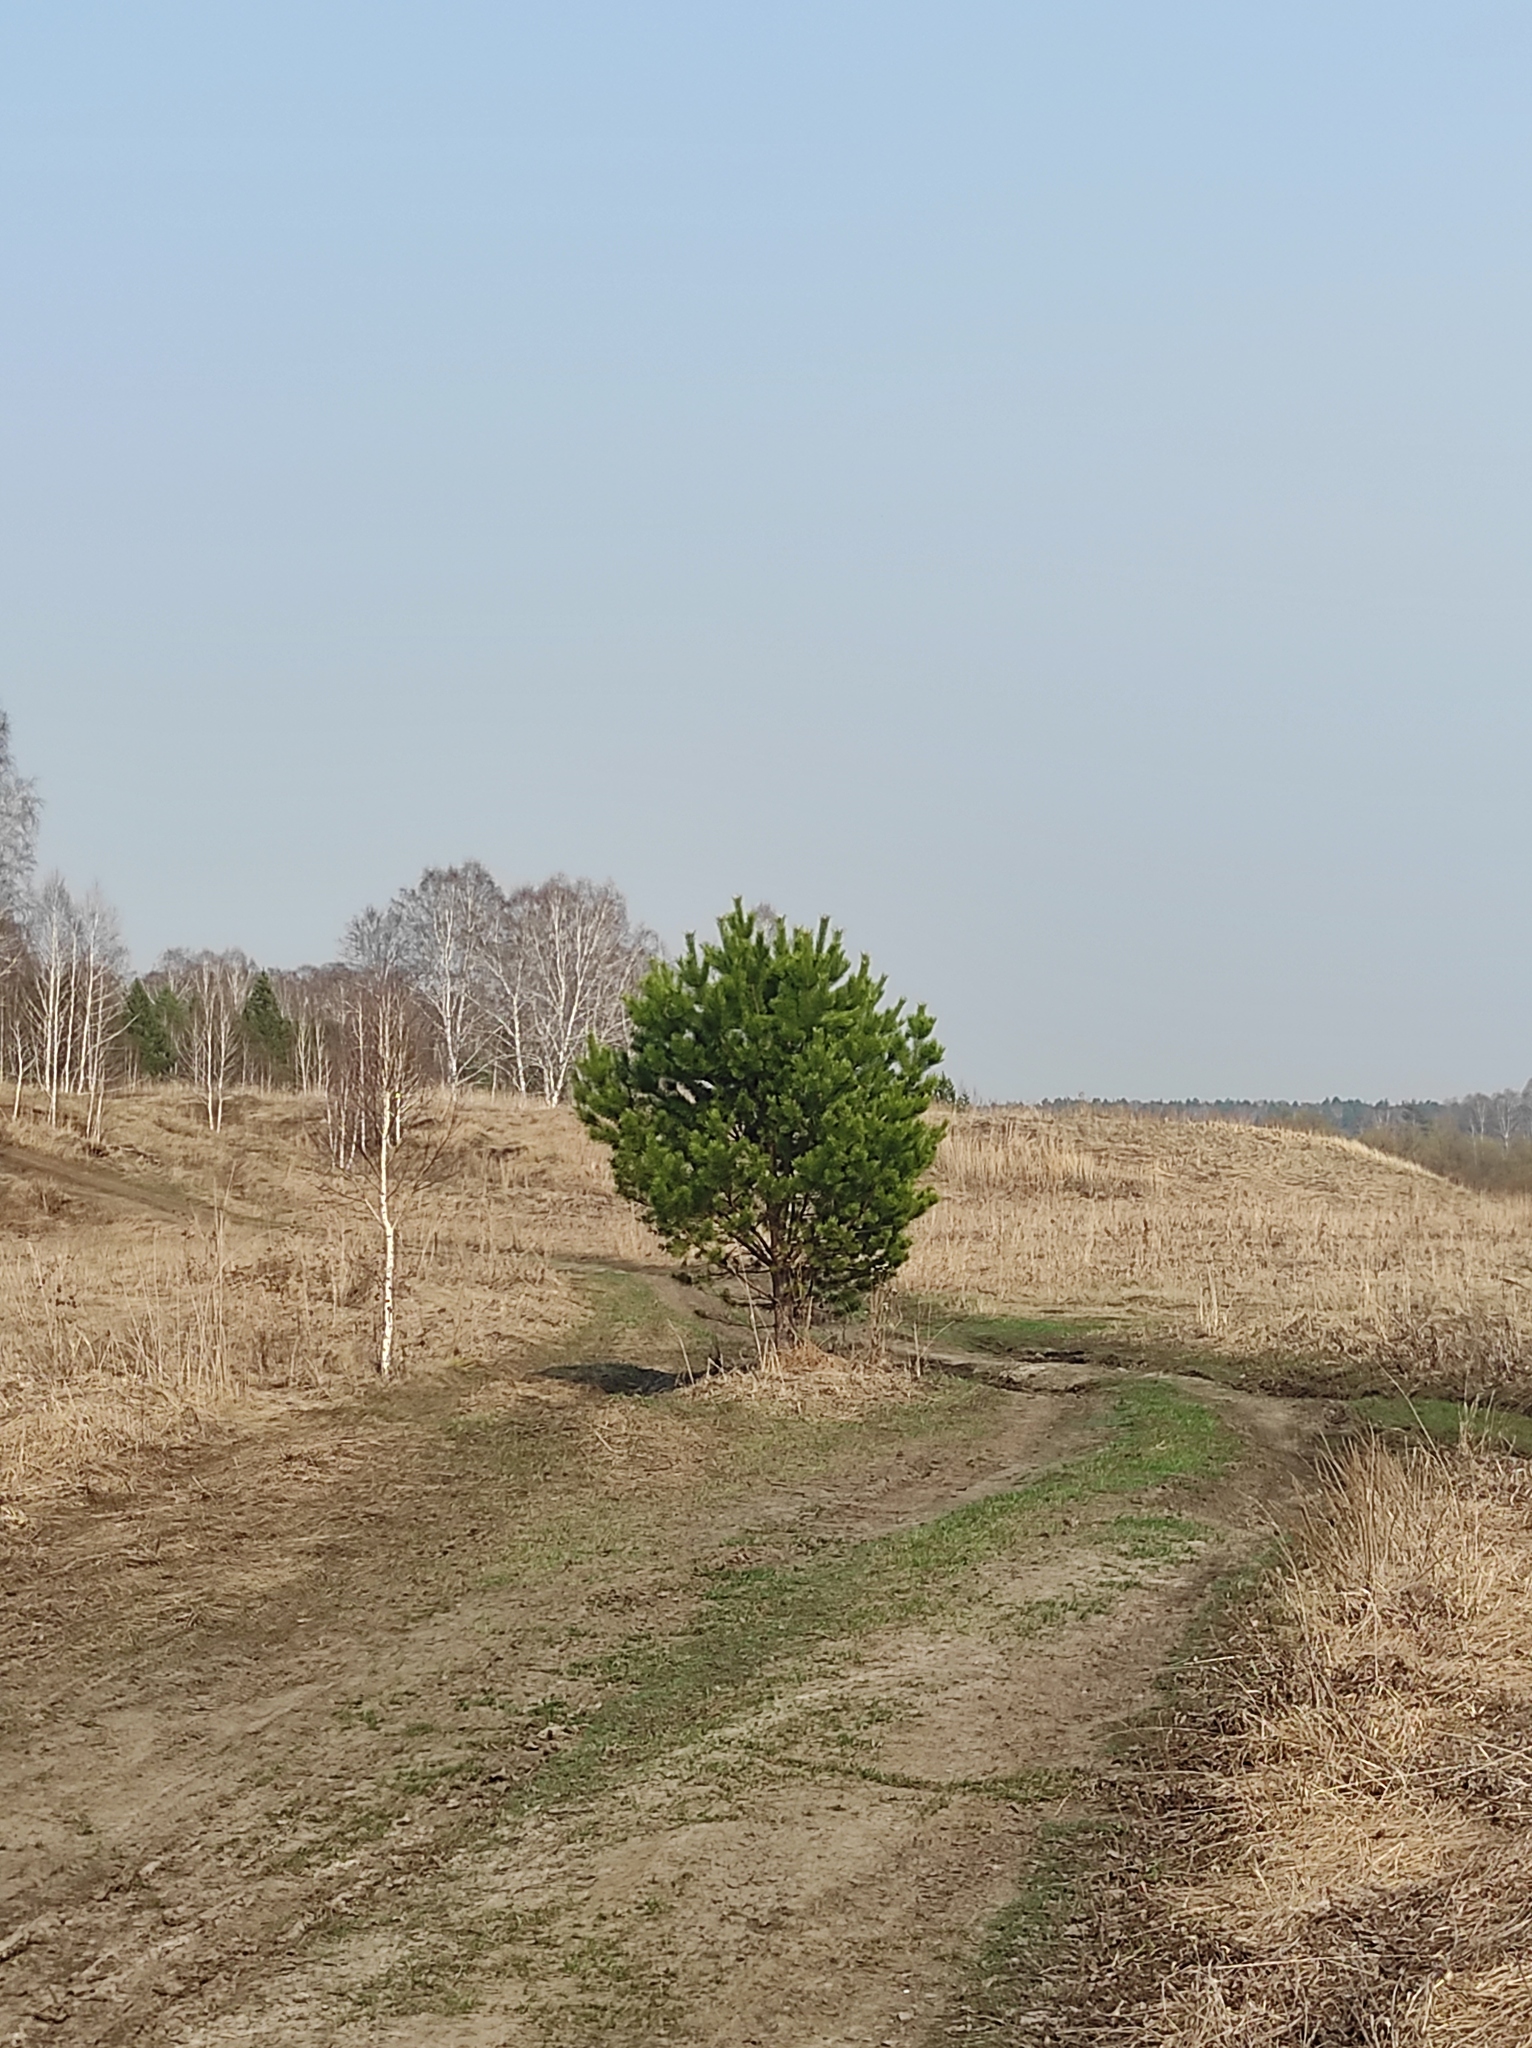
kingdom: Plantae
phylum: Tracheophyta
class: Pinopsida
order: Pinales
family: Pinaceae
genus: Pinus
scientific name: Pinus sylvestris
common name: Scots pine
